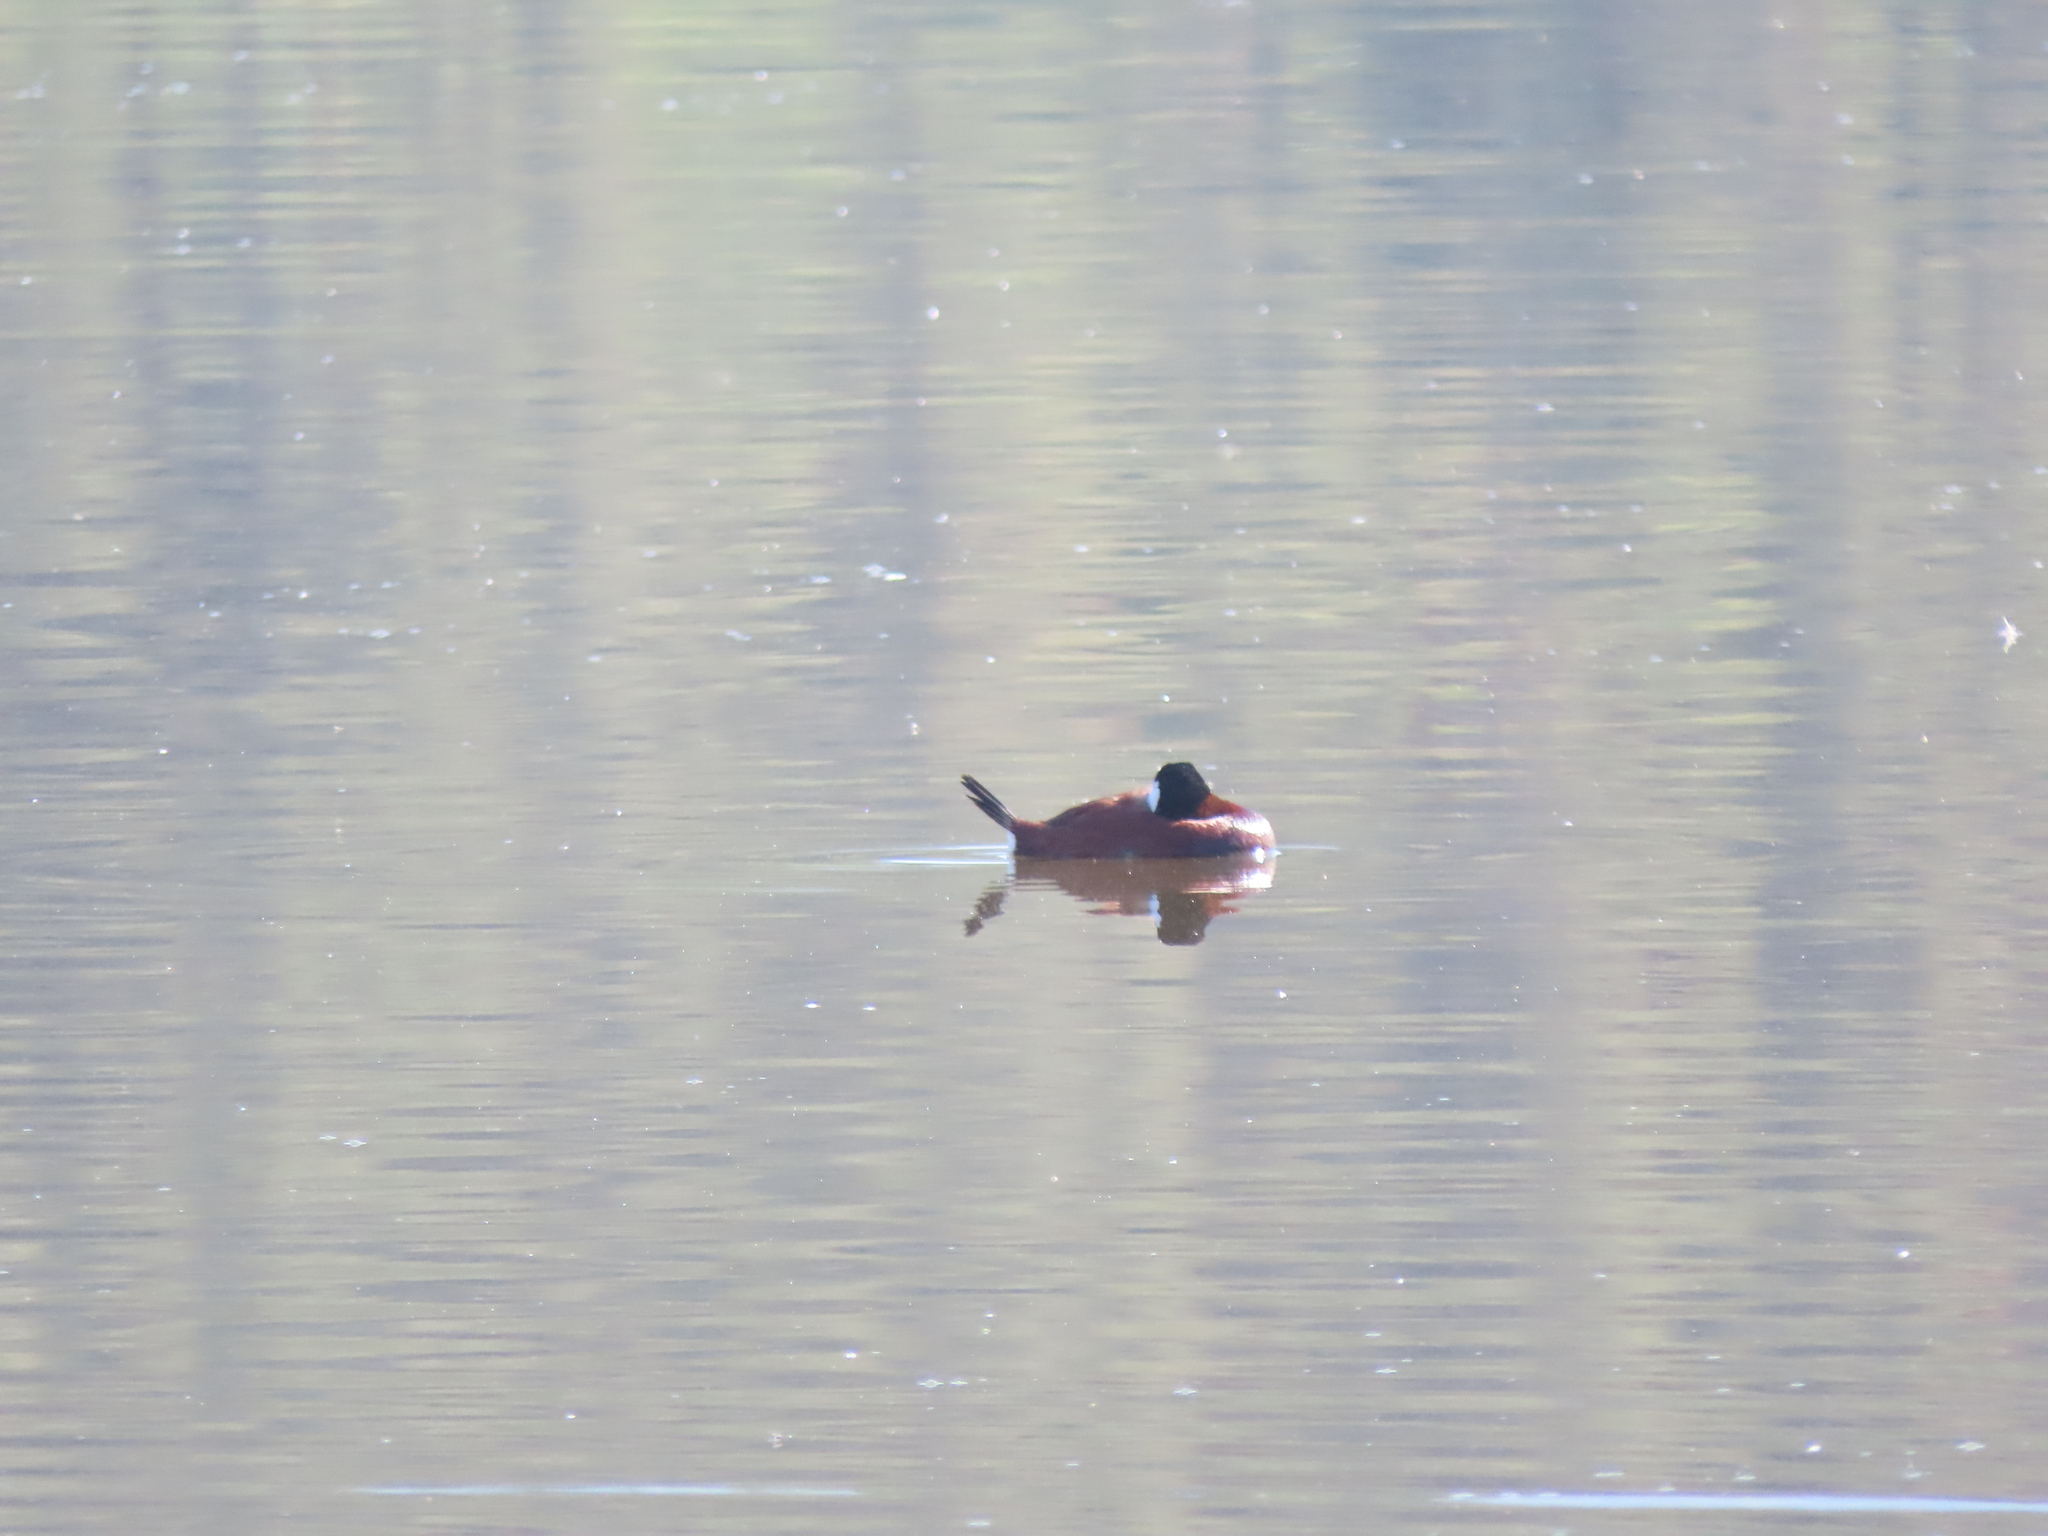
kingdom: Animalia
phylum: Chordata
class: Aves
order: Anseriformes
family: Anatidae
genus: Oxyura
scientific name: Oxyura jamaicensis
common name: Ruddy duck
